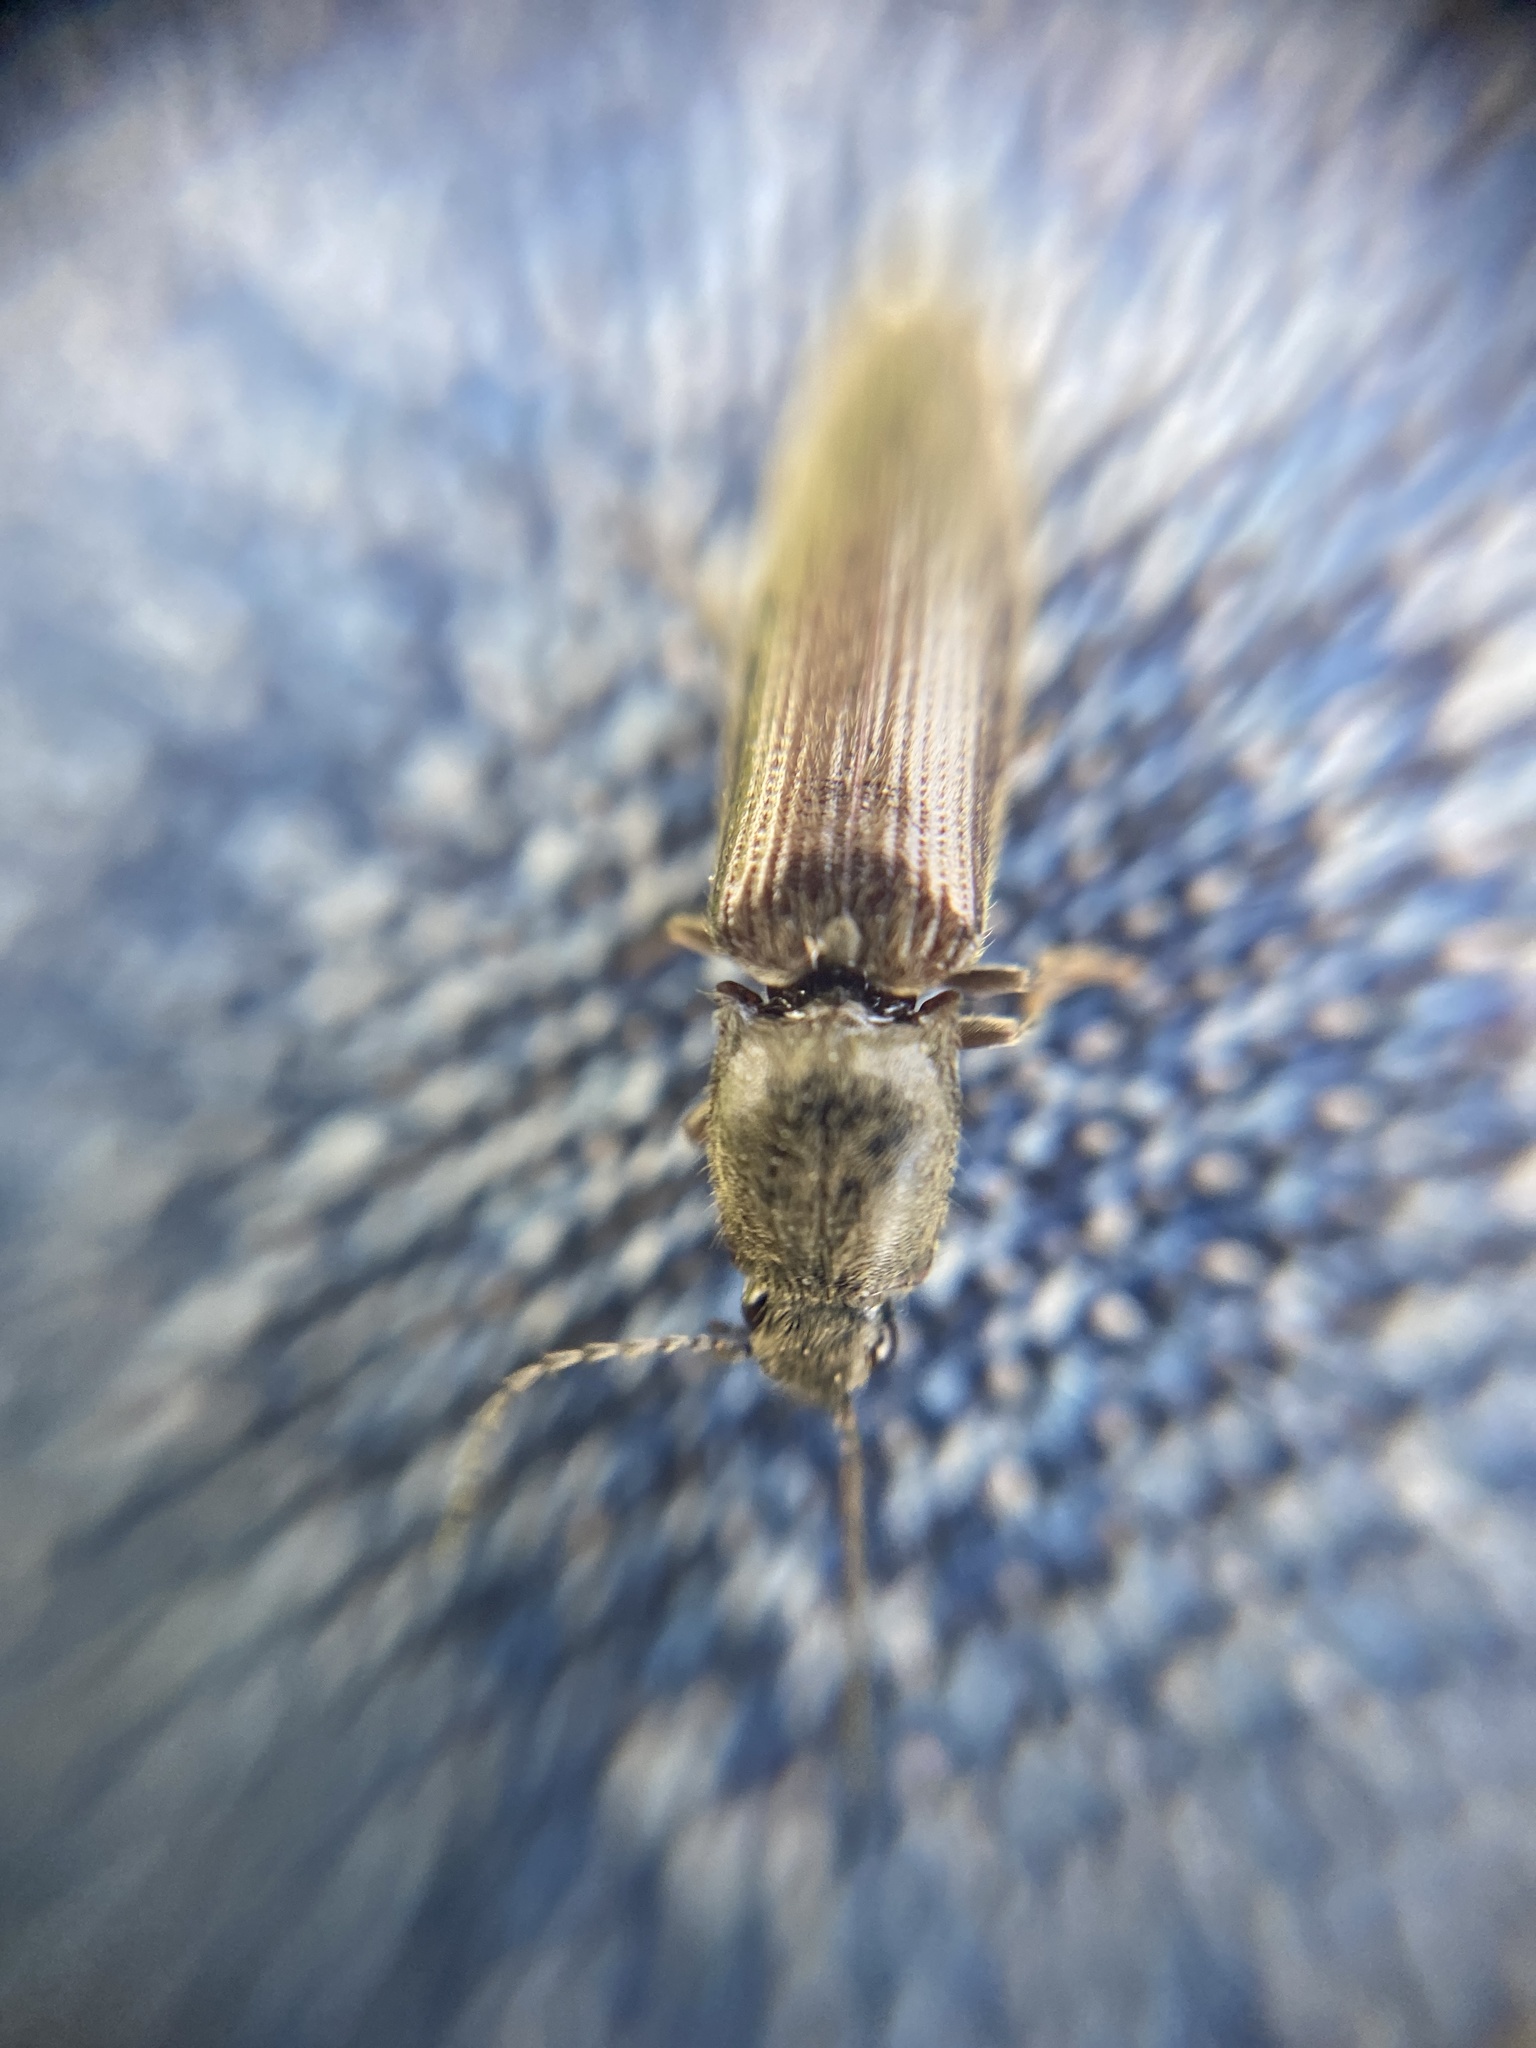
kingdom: Animalia
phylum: Arthropoda
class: Insecta
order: Coleoptera
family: Elateridae
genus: Athous
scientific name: Athous haemorrhoidalis
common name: Red-brown click beetle
